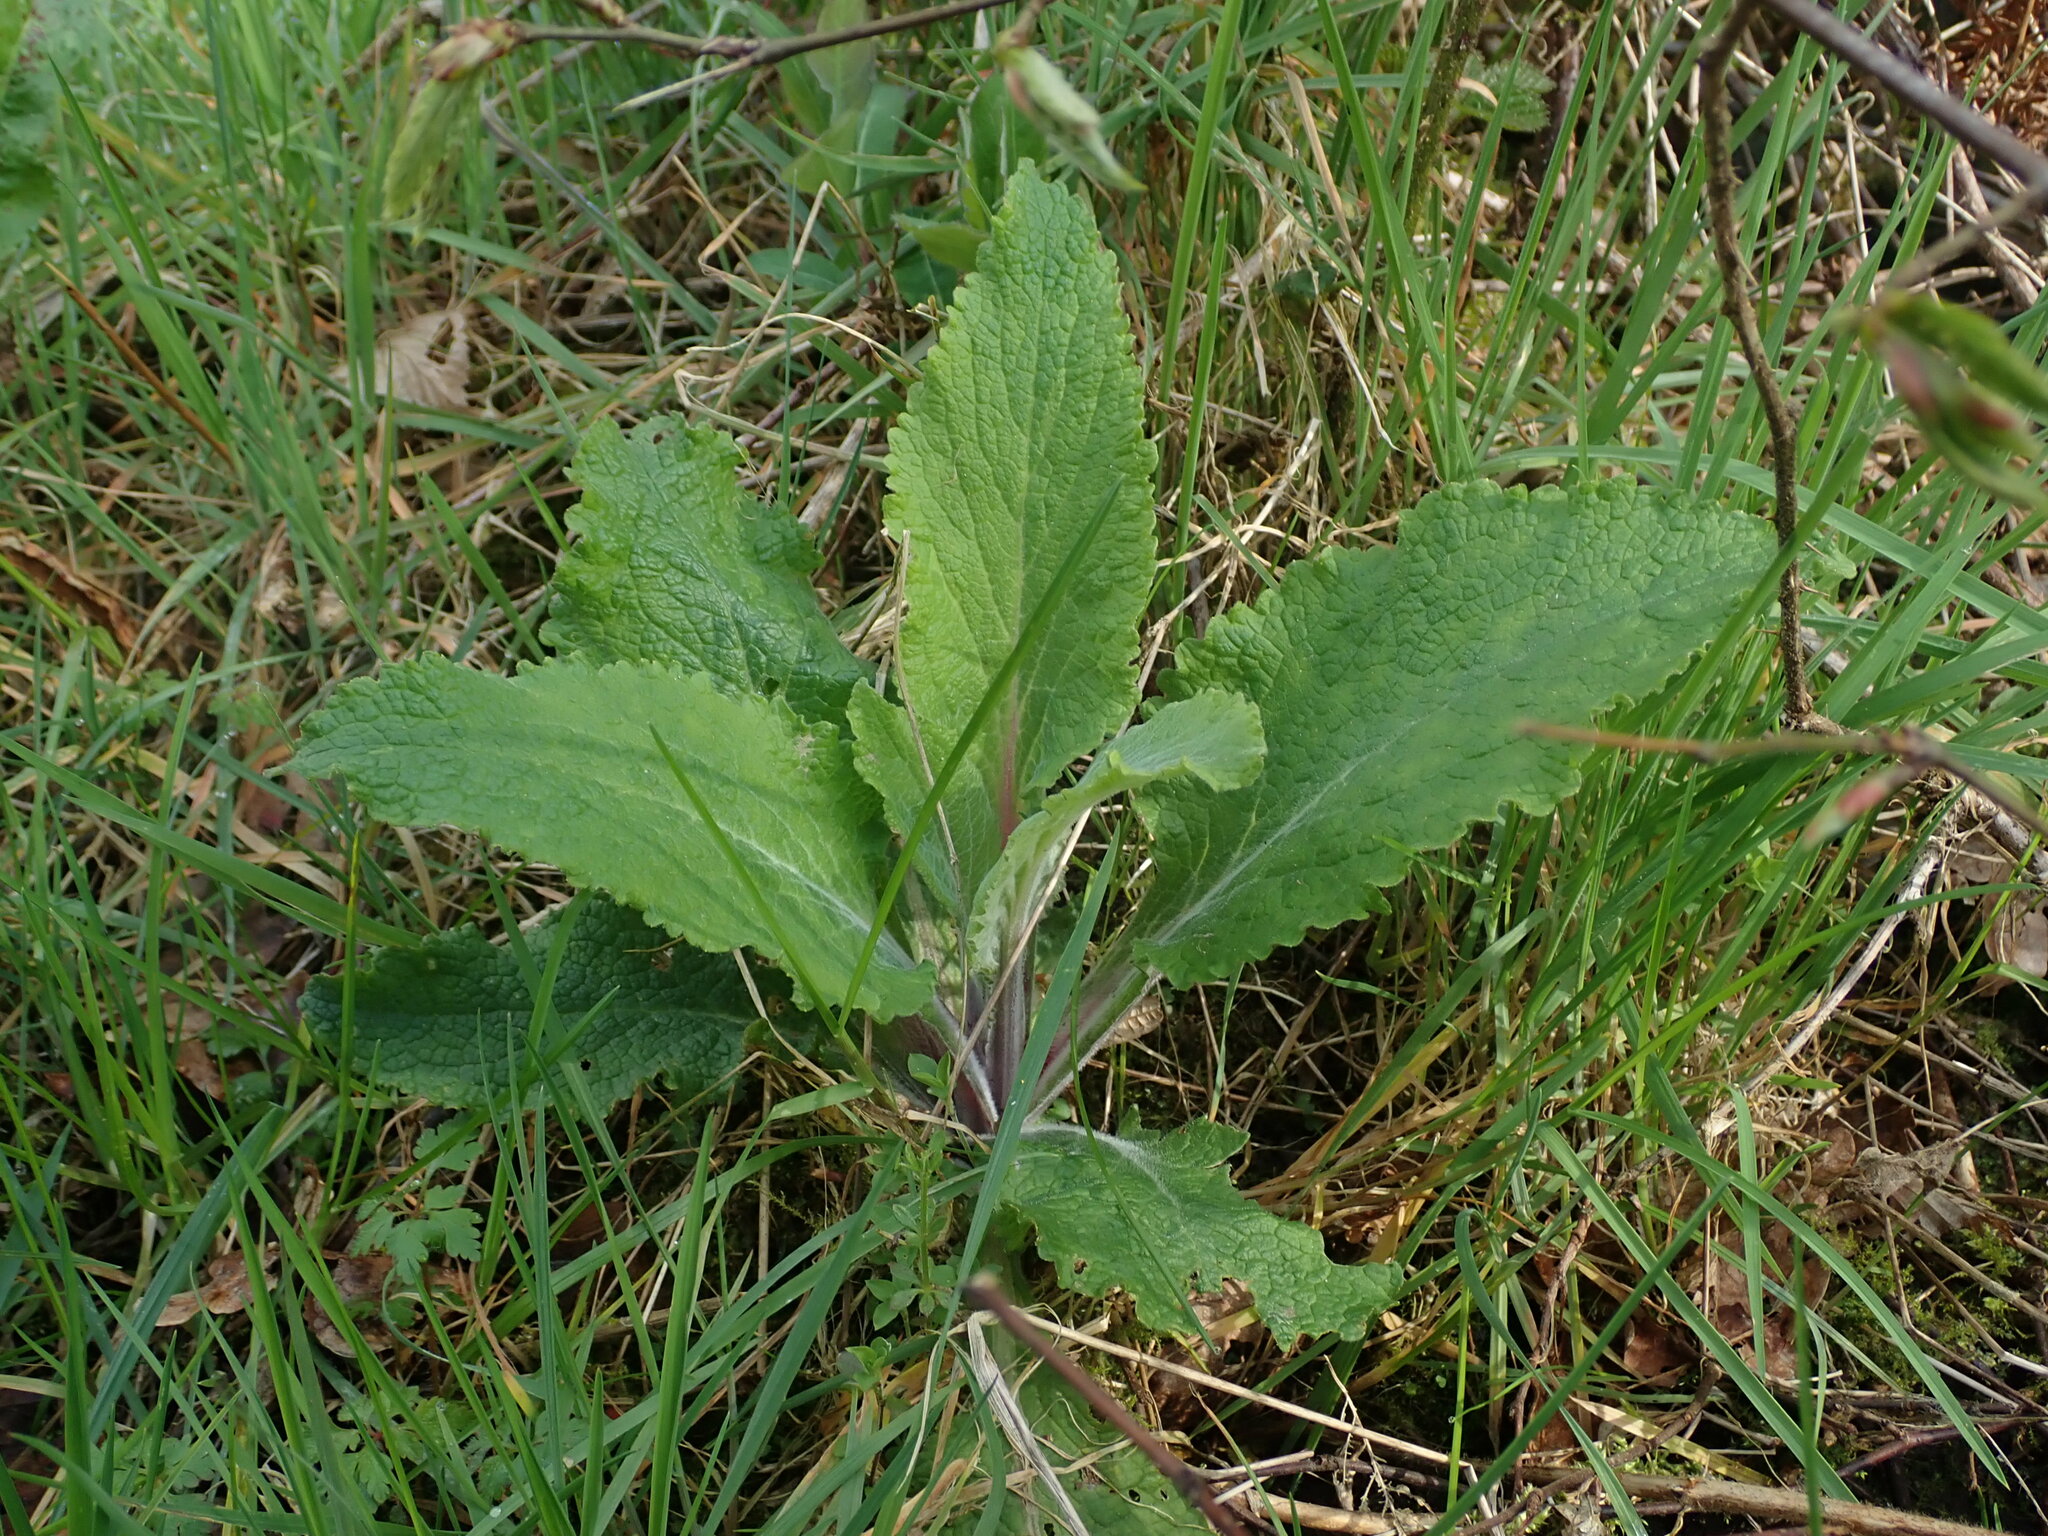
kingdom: Plantae
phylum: Tracheophyta
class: Magnoliopsida
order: Lamiales
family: Plantaginaceae
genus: Digitalis
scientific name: Digitalis purpurea
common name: Foxglove
